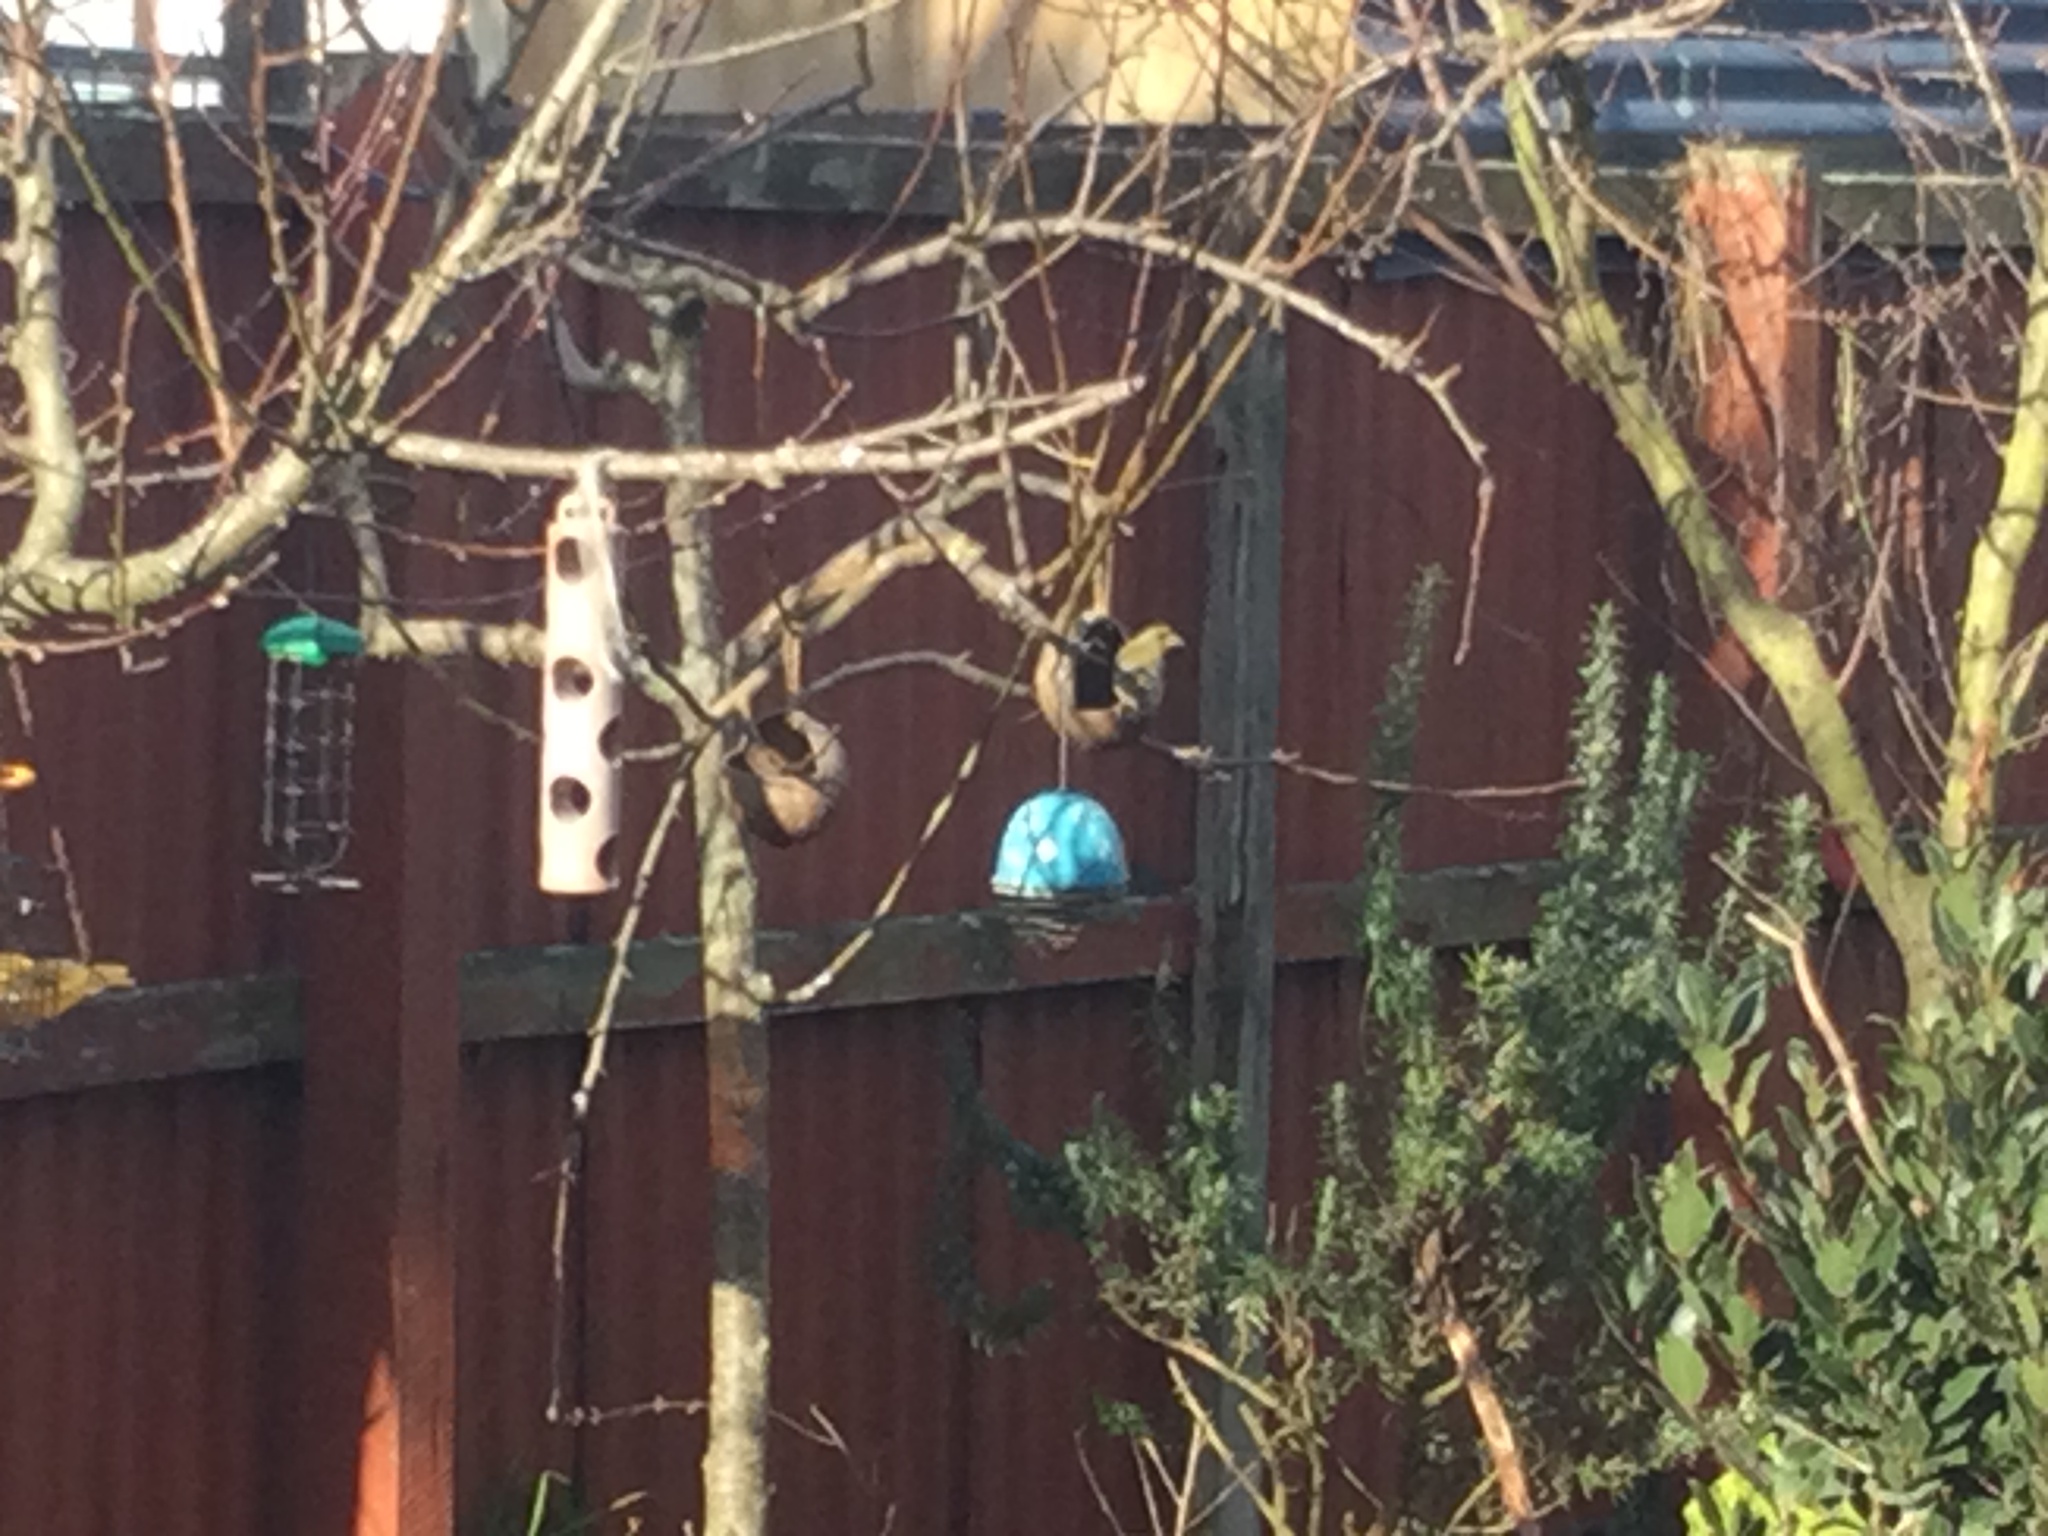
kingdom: Plantae
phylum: Tracheophyta
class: Liliopsida
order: Poales
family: Poaceae
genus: Chloris
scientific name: Chloris chloris
